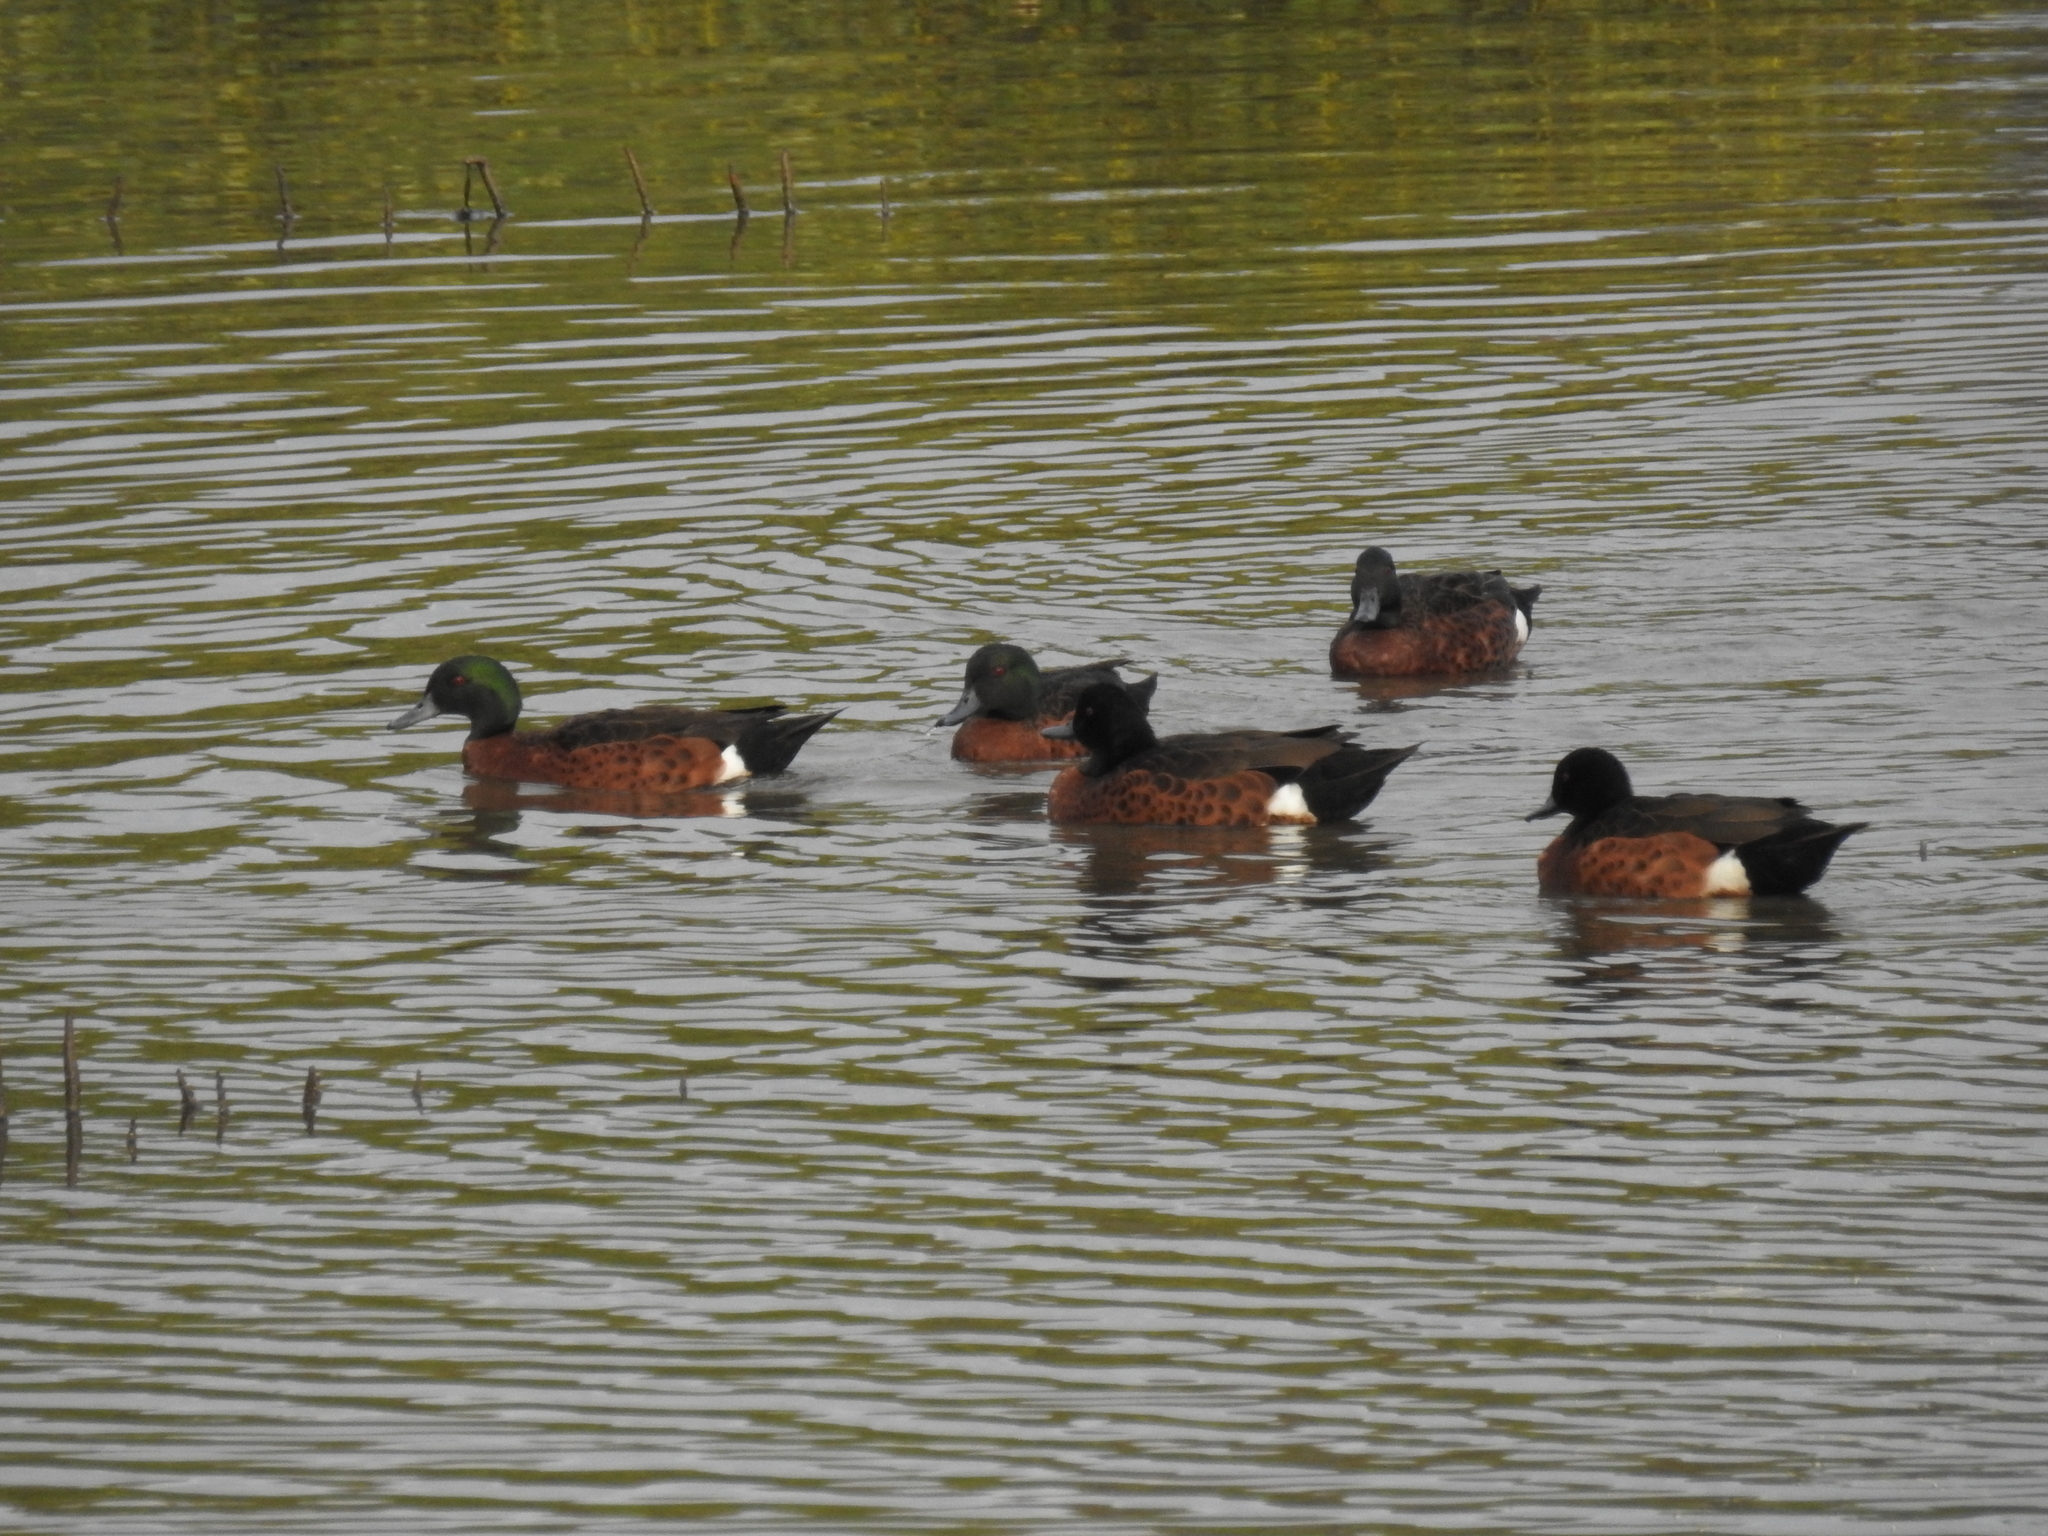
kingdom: Animalia
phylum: Chordata
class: Aves
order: Anseriformes
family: Anatidae
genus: Anas
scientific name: Anas castanea
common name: Chestnut teal
